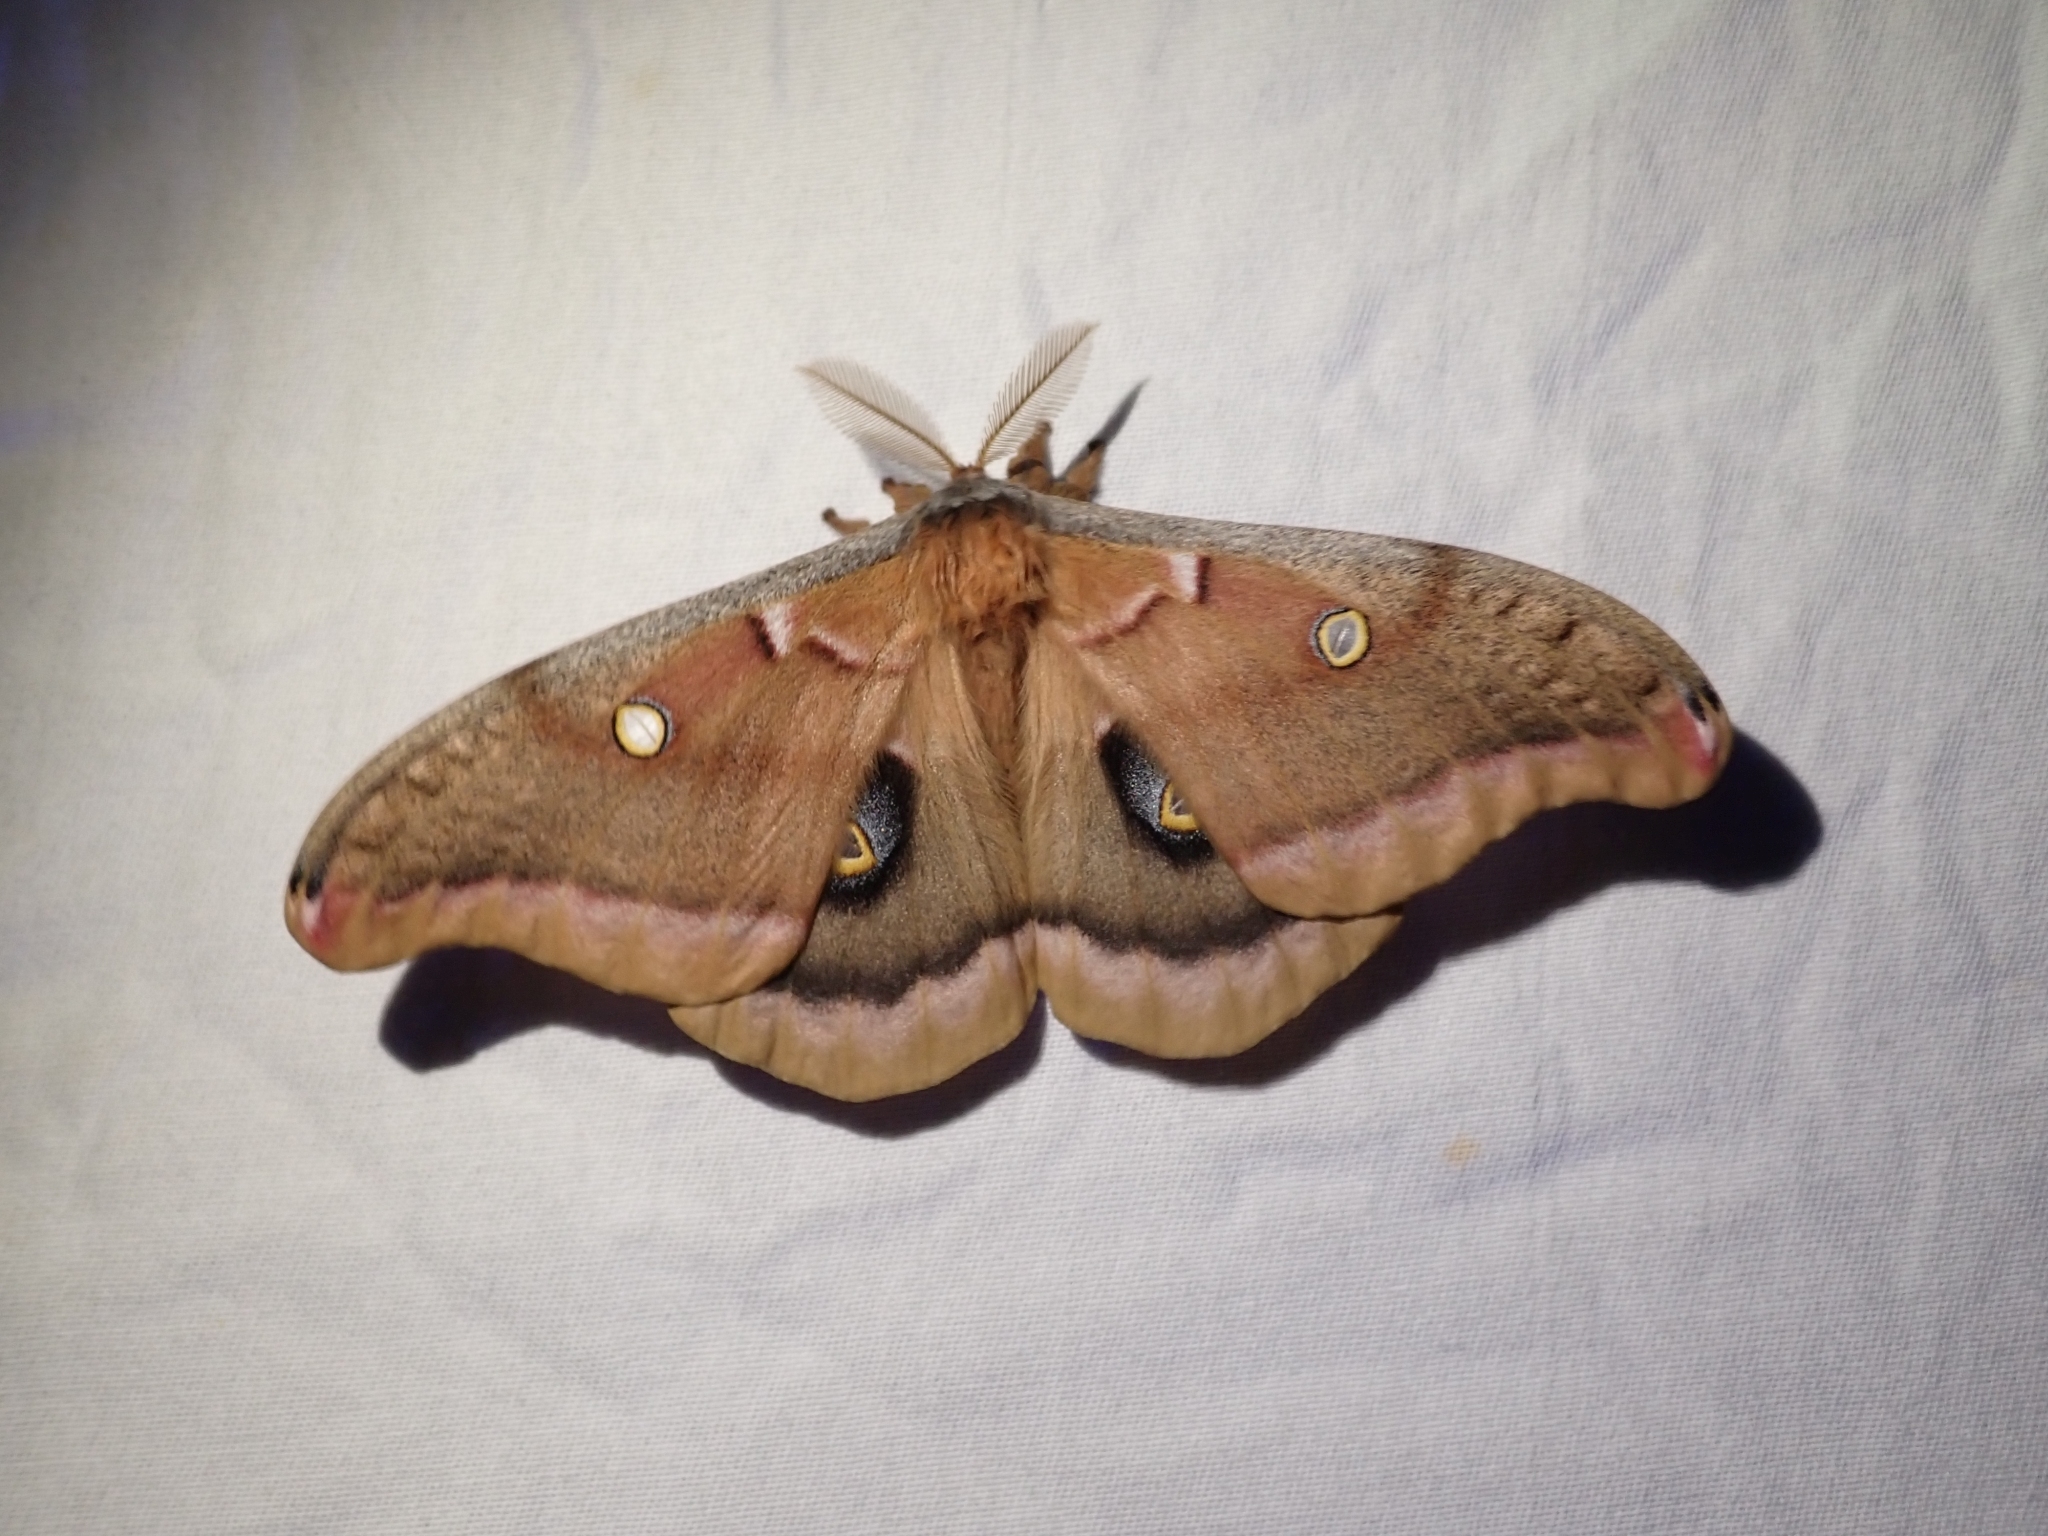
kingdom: Animalia
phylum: Arthropoda
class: Insecta
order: Lepidoptera
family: Saturniidae
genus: Antheraea
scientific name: Antheraea polyphemus
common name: Polyphemus moth
